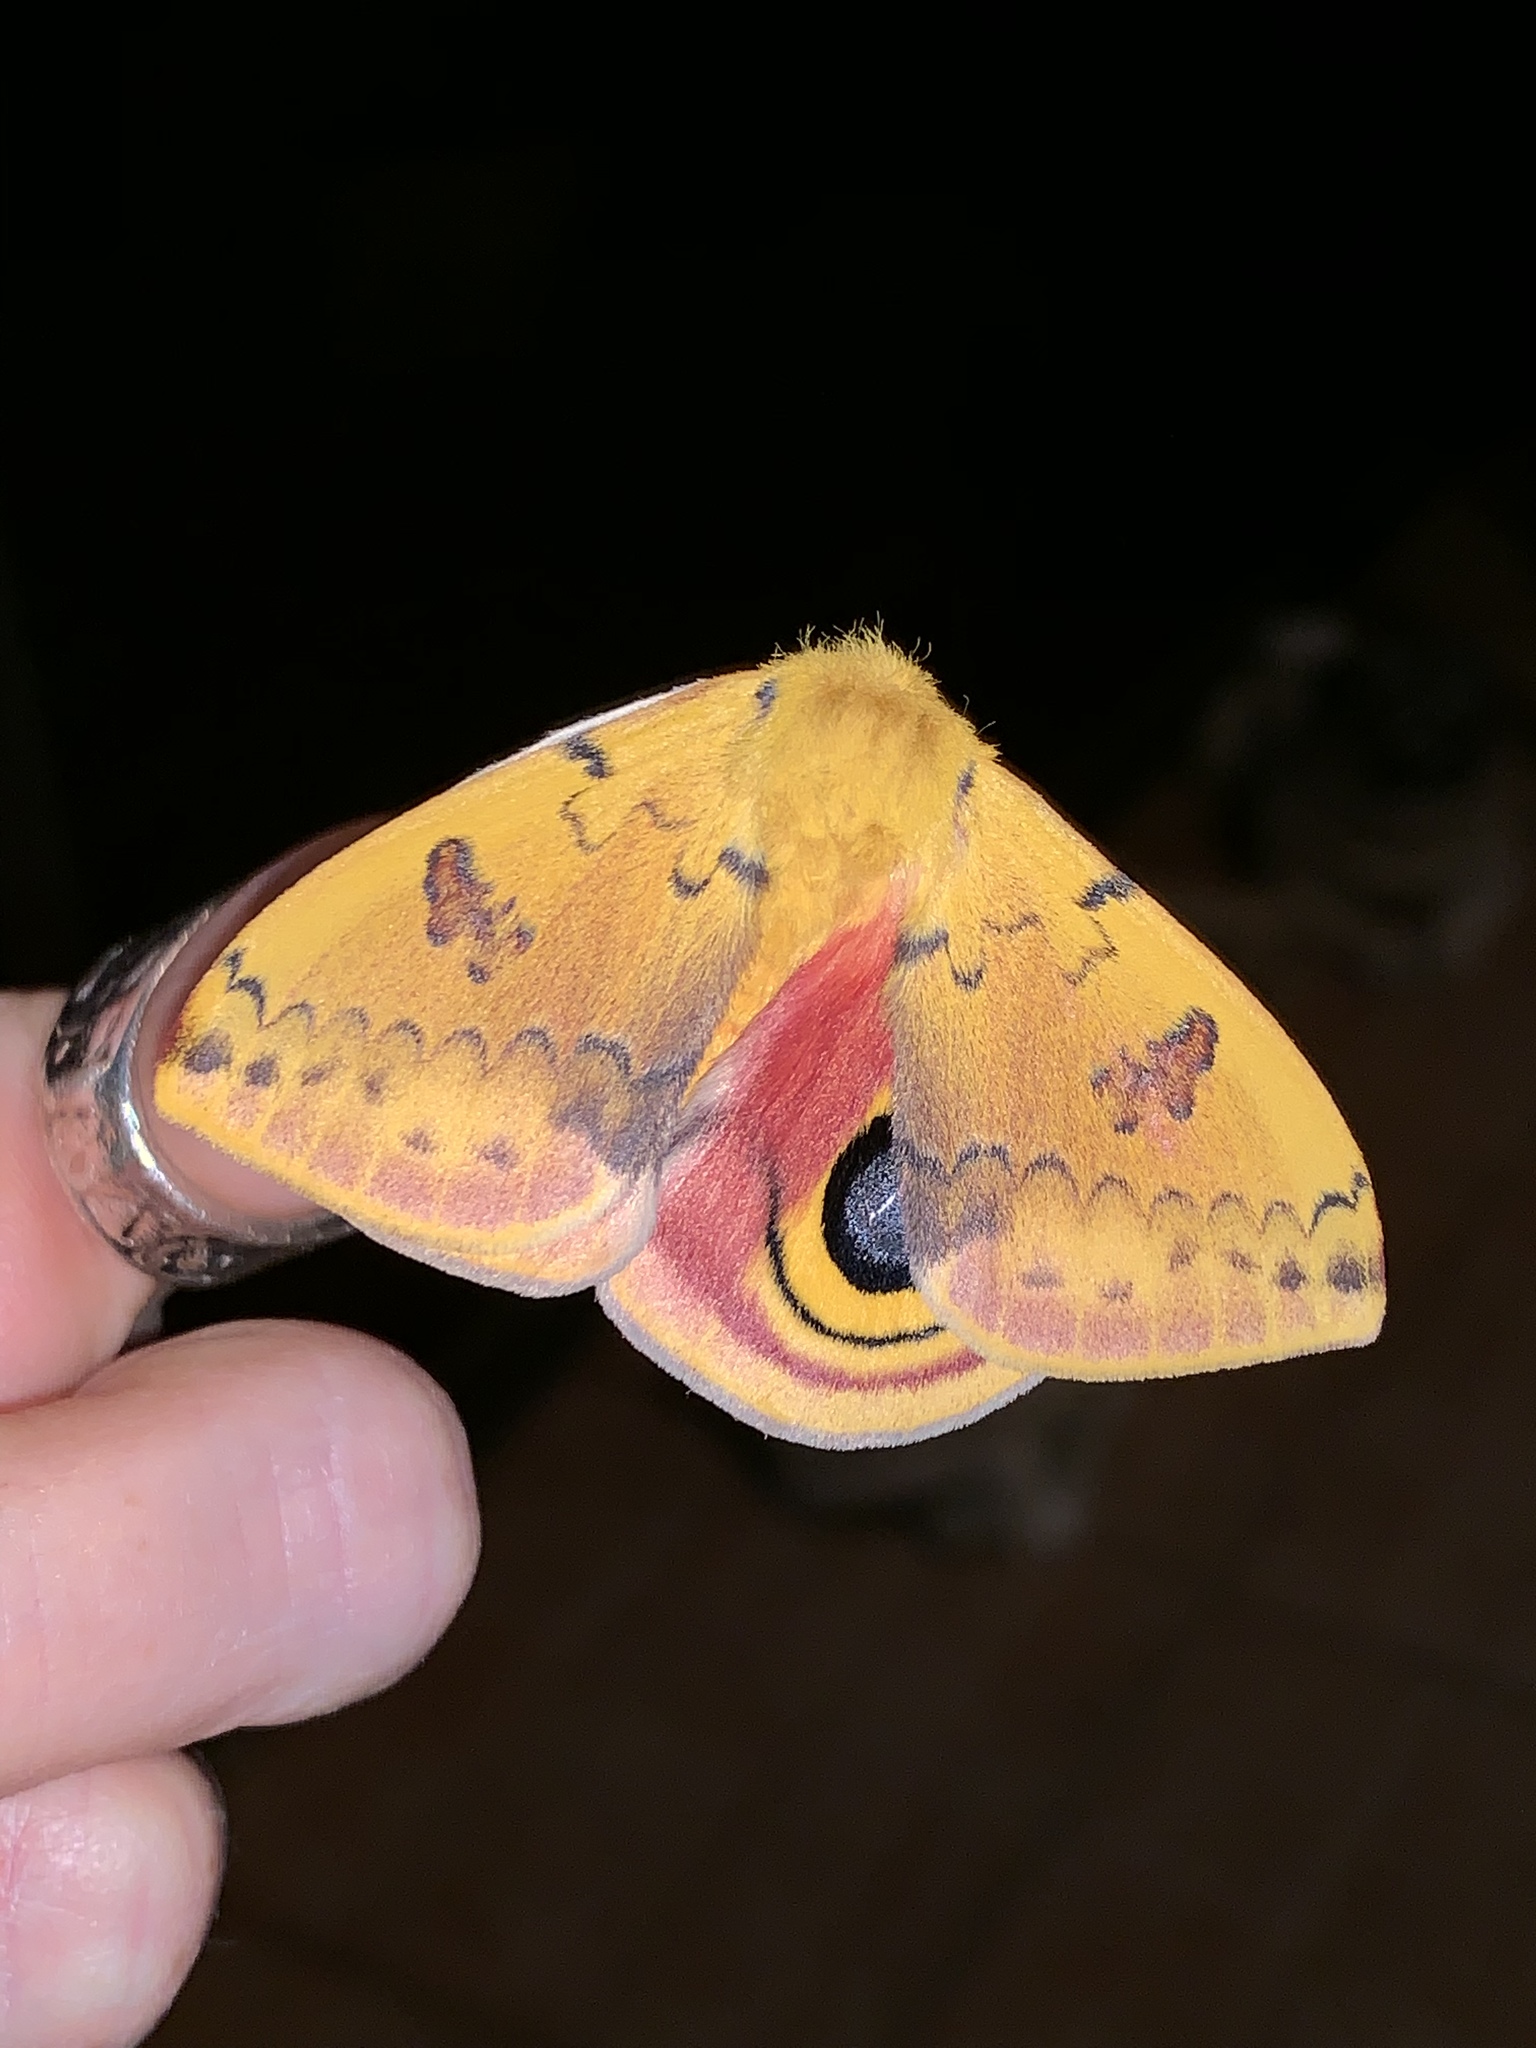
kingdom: Animalia
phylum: Arthropoda
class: Insecta
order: Lepidoptera
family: Saturniidae
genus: Automeris
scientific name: Automeris io
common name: Io moth
